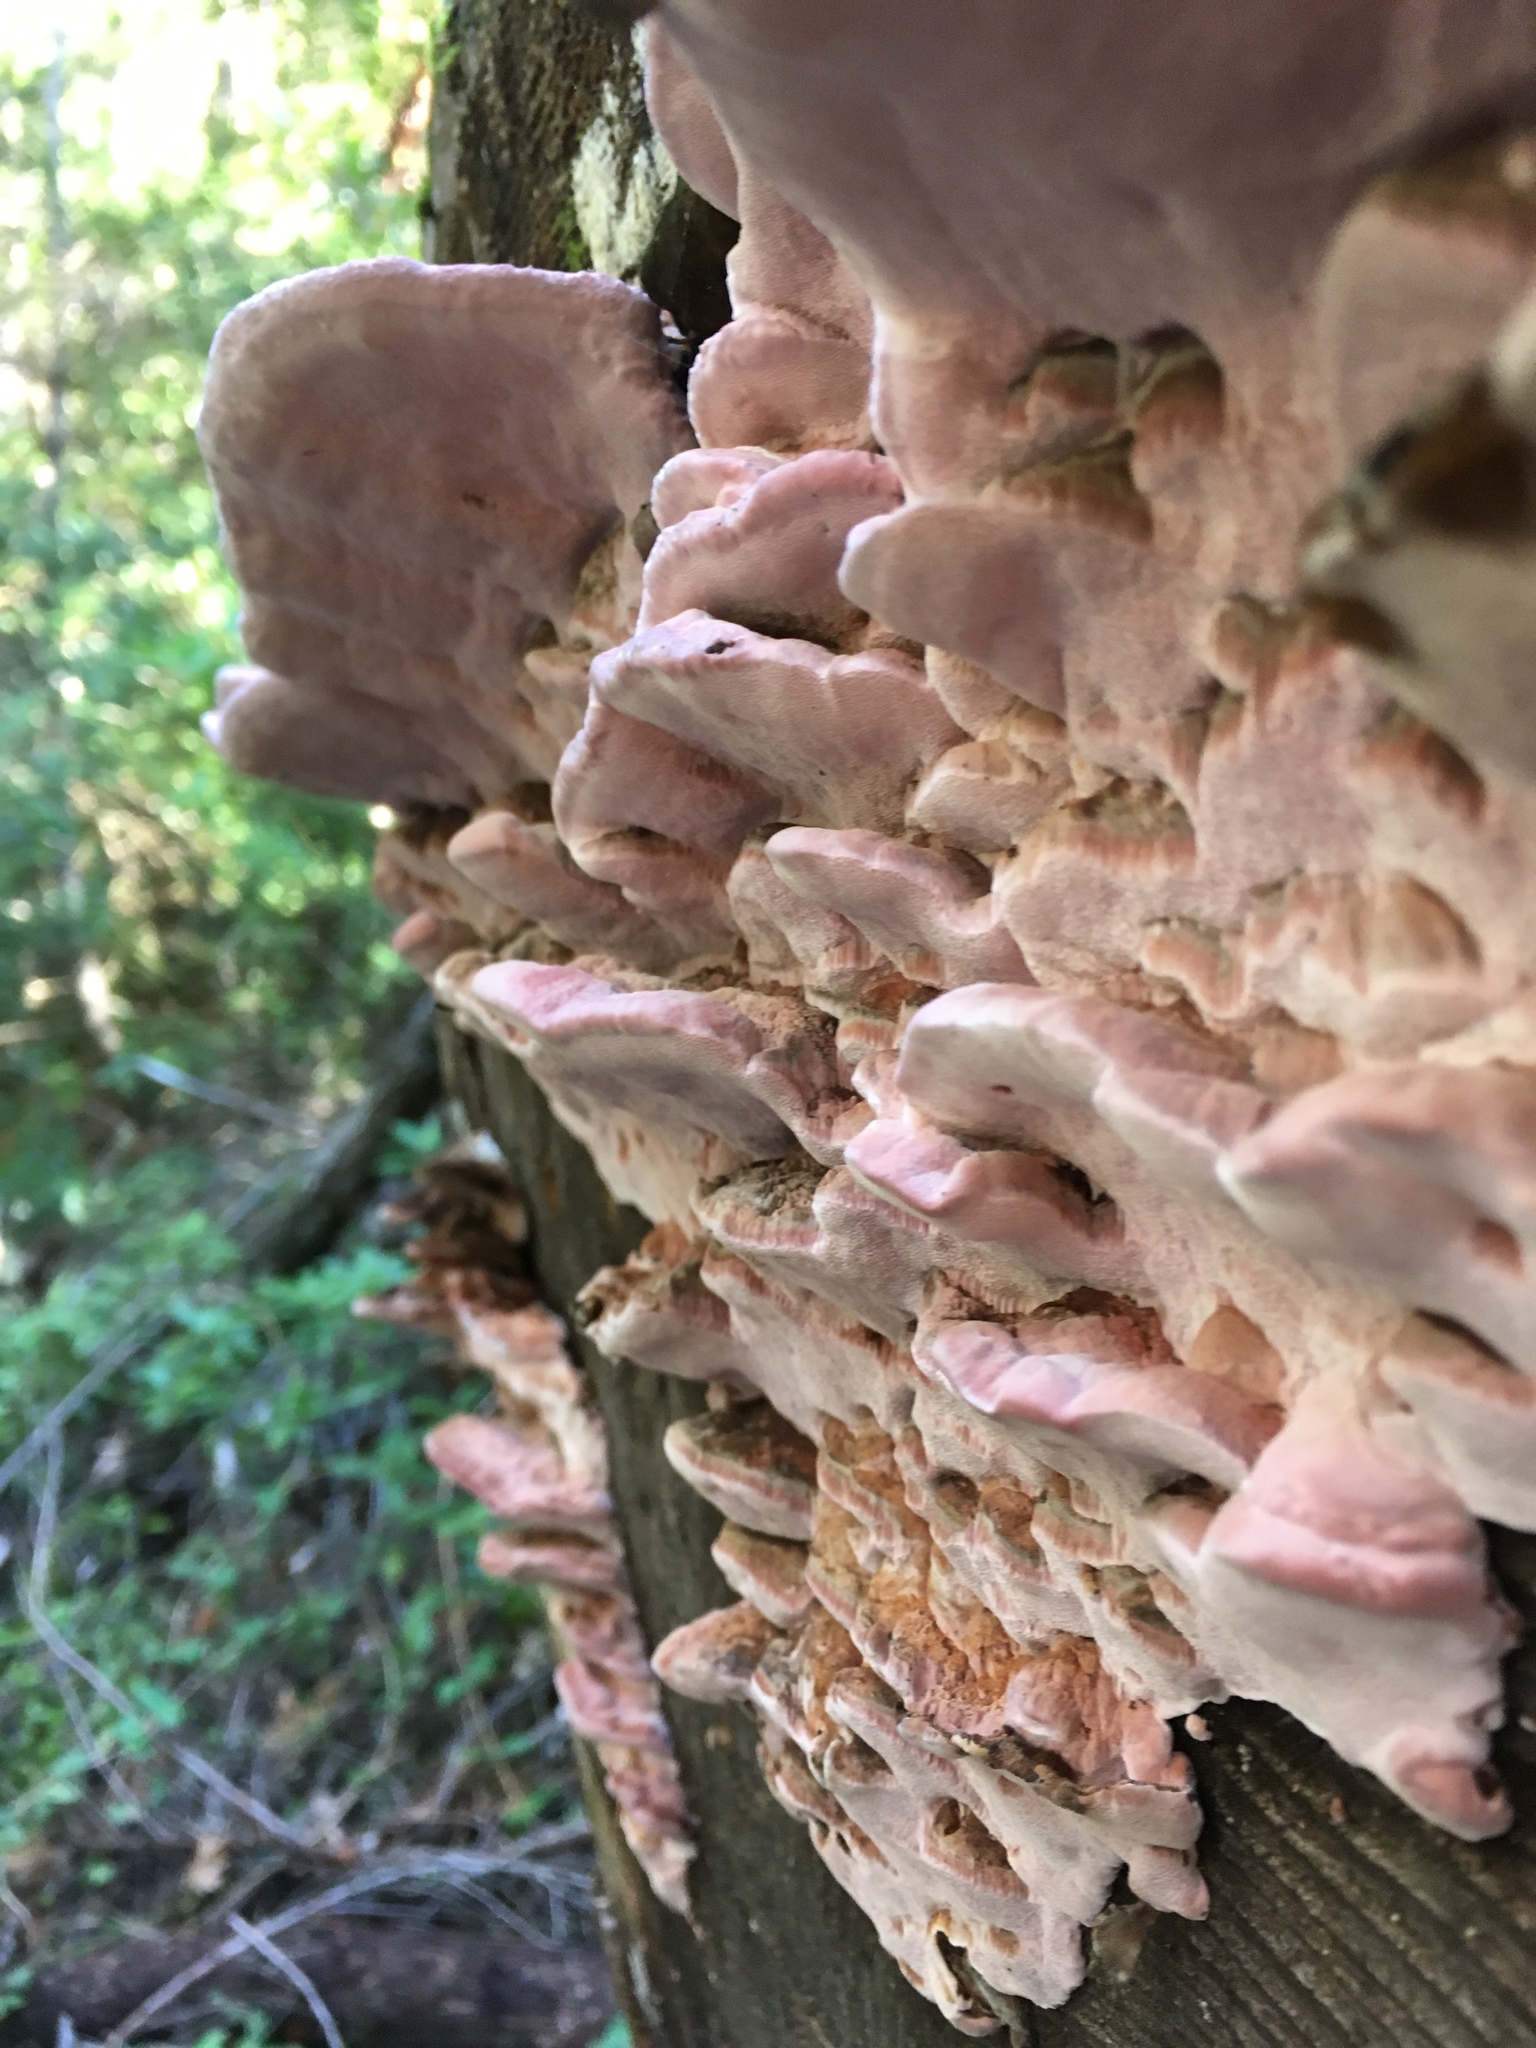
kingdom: Fungi
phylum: Basidiomycota
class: Agaricomycetes
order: Agaricales
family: Cyphellaceae
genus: Chondrostereum
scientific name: Chondrostereum purpureum
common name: Silver leaf disease
